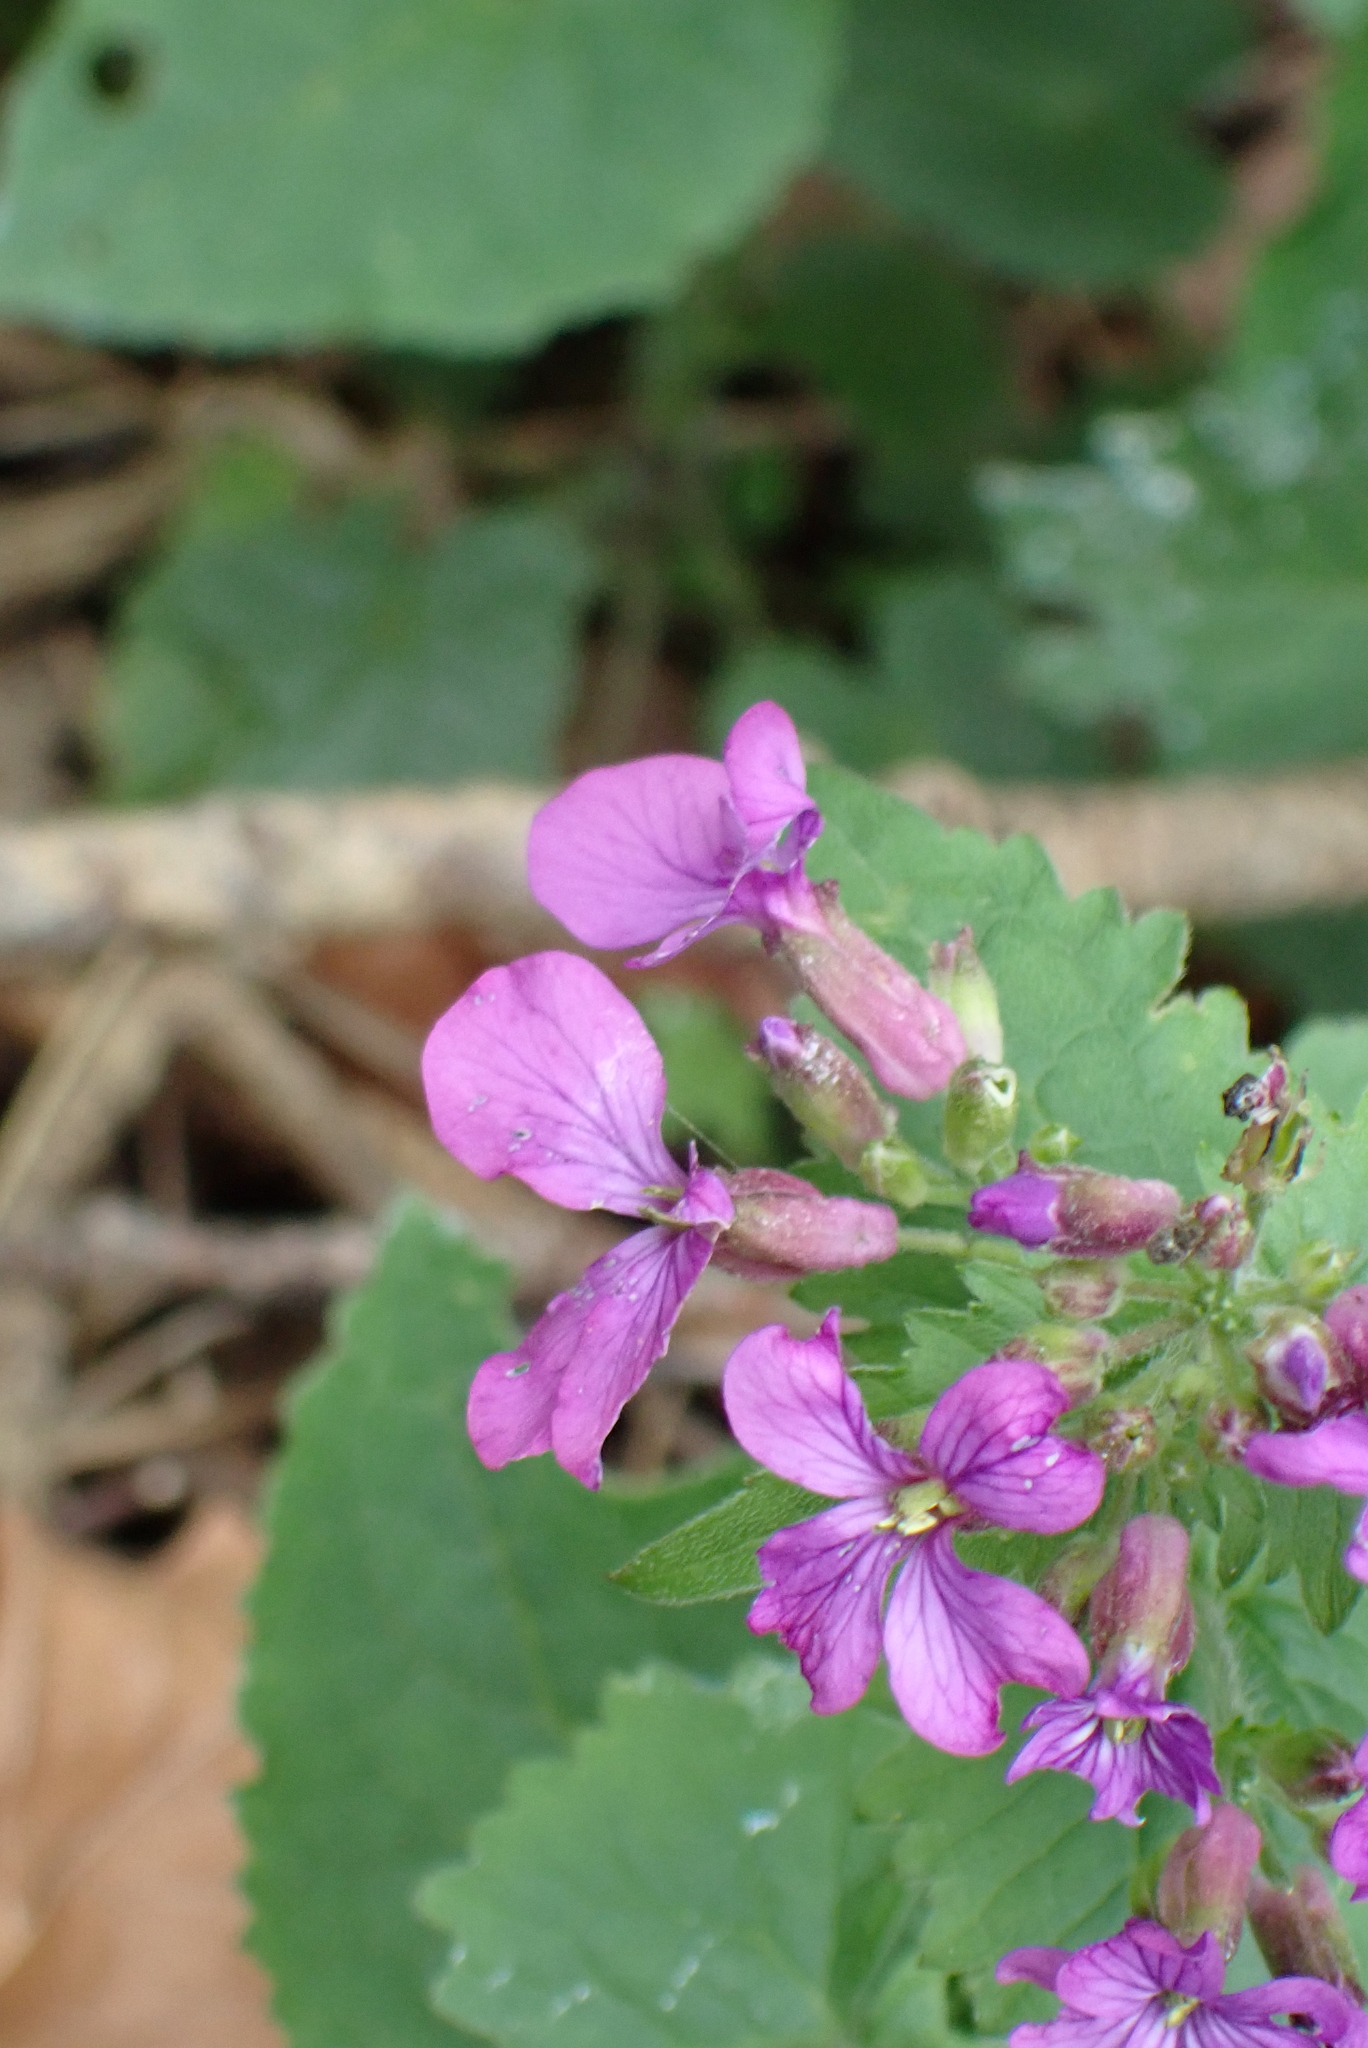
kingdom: Plantae
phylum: Tracheophyta
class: Magnoliopsida
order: Brassicales
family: Brassicaceae
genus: Lunaria
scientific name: Lunaria annua
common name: Honesty
